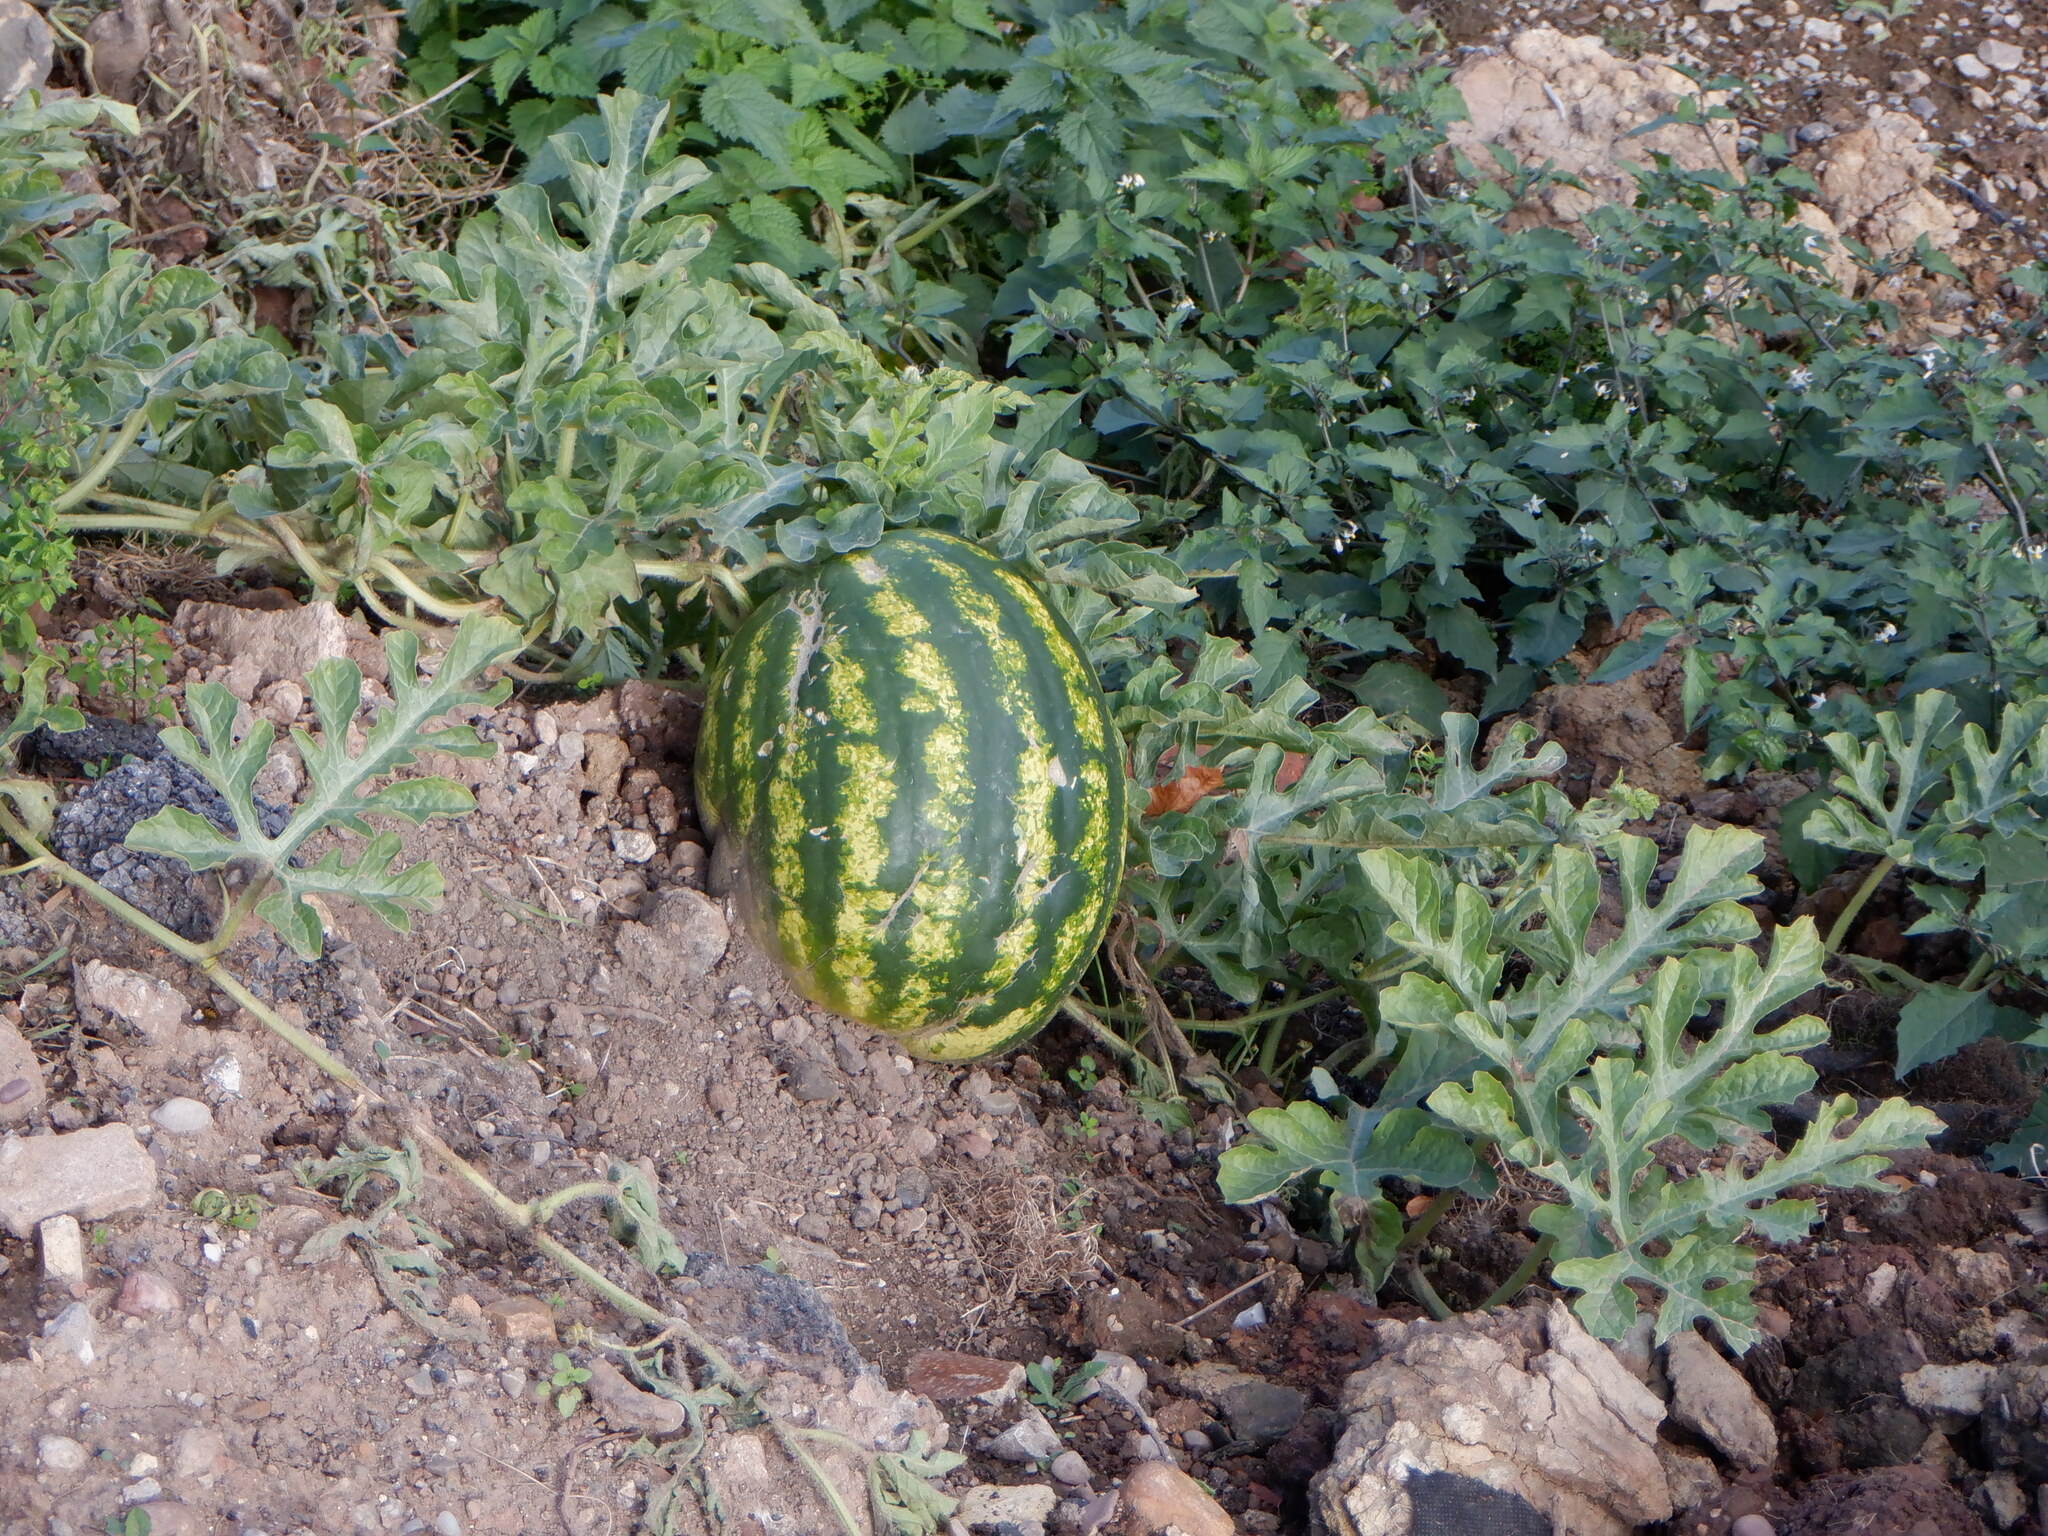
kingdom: Plantae
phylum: Tracheophyta
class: Magnoliopsida
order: Cucurbitales
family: Cucurbitaceae
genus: Citrullus
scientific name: Citrullus lanatus
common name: Watermelon
